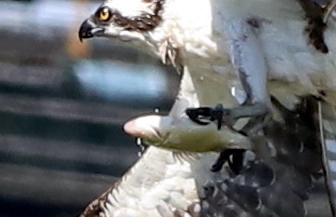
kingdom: Animalia
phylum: Chordata
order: Perciformes
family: Moronidae
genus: Morone
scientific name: Morone americana
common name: White perch
